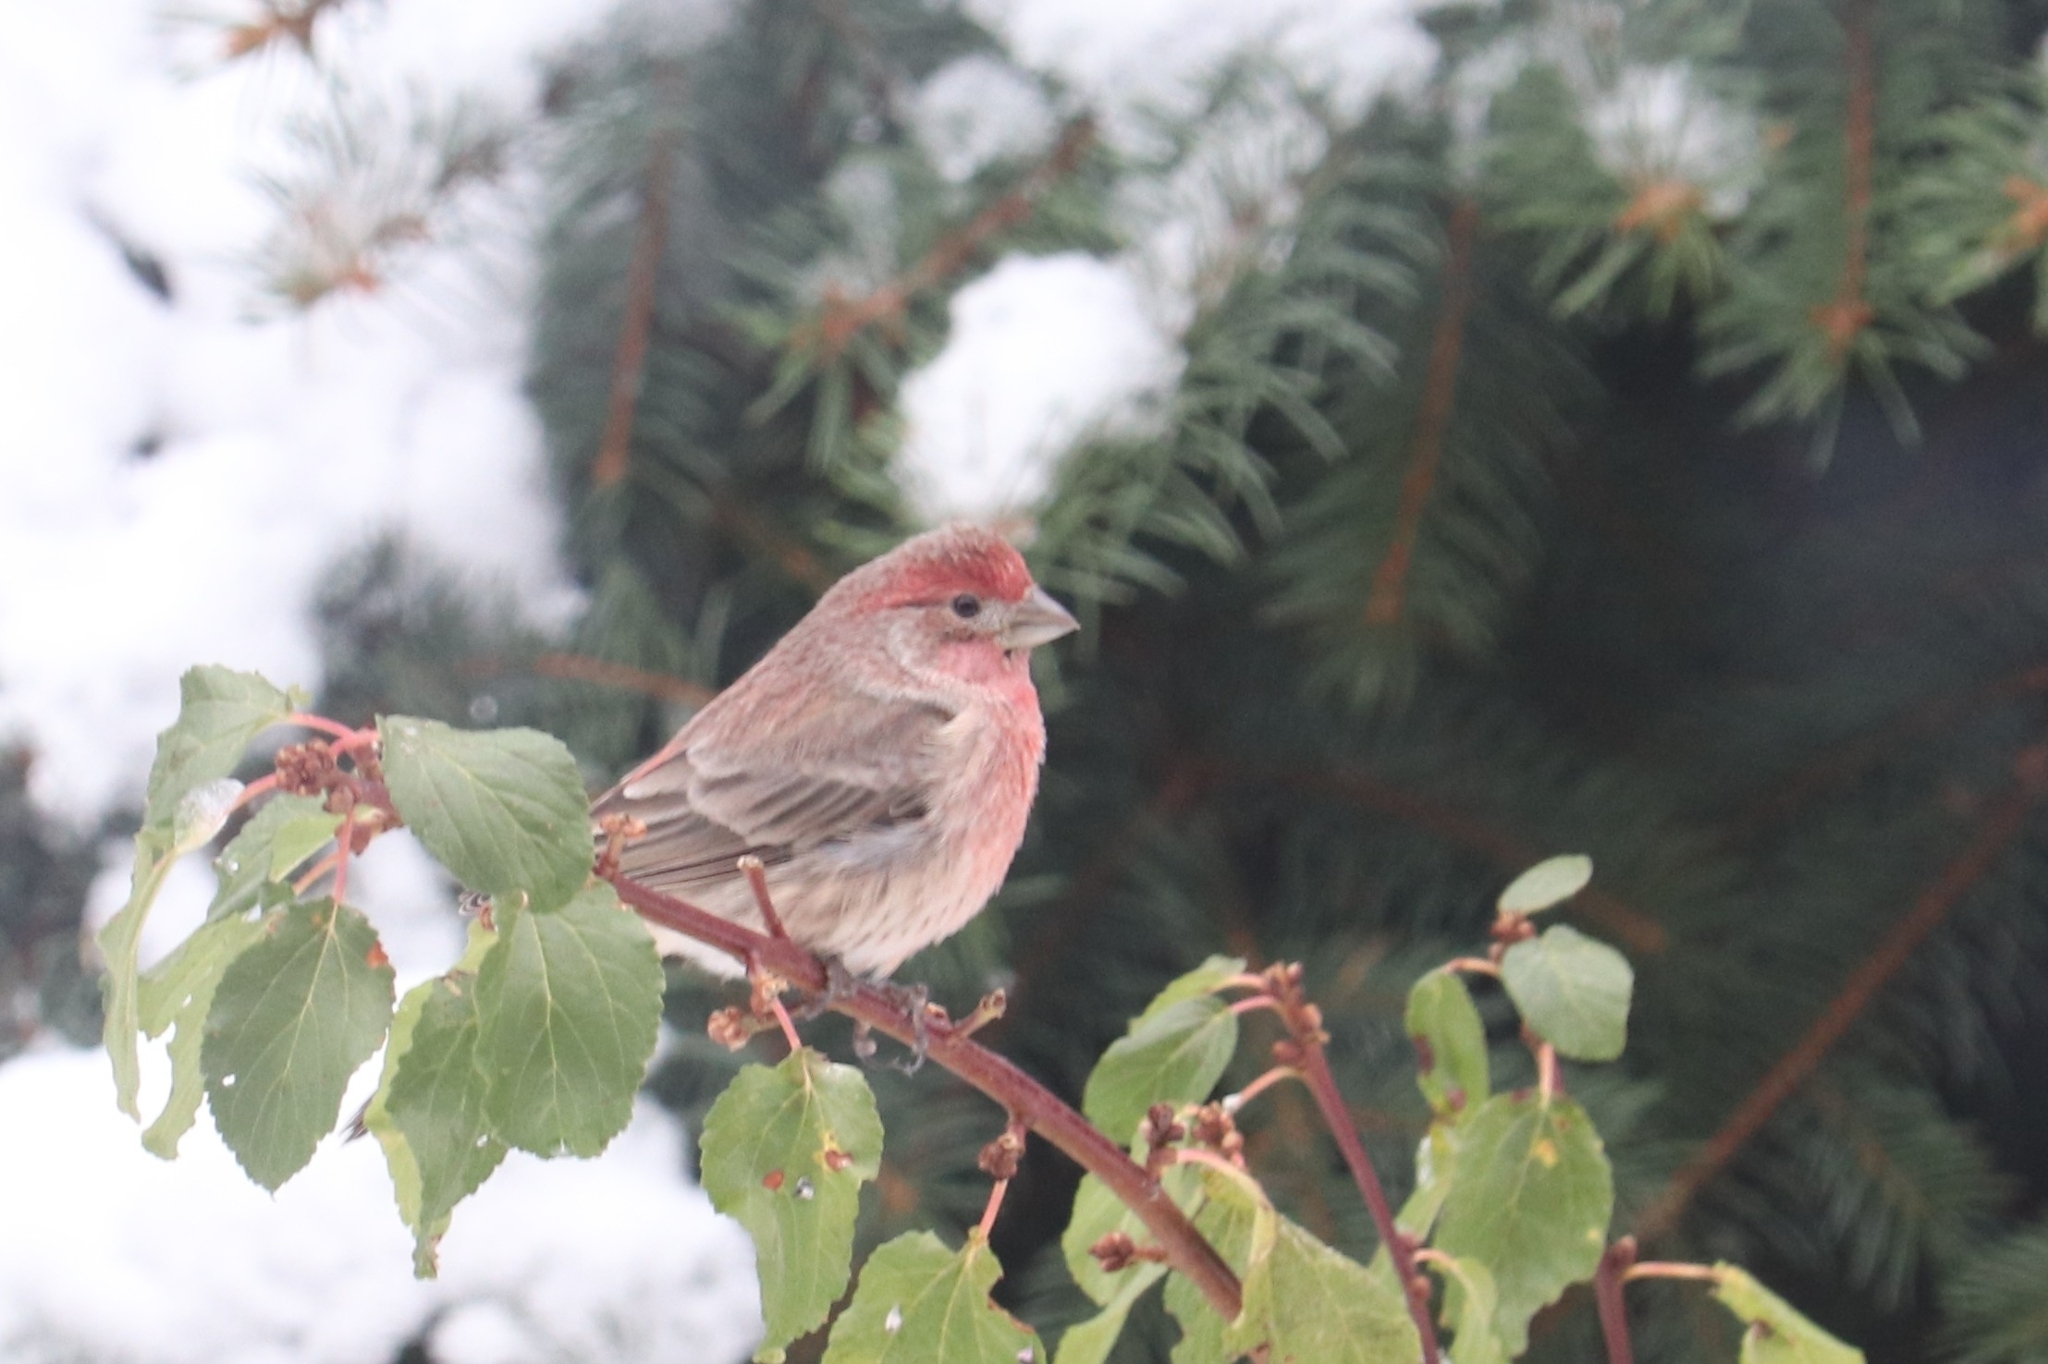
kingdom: Animalia
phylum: Chordata
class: Aves
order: Passeriformes
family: Fringillidae
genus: Haemorhous
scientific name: Haemorhous mexicanus
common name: House finch
